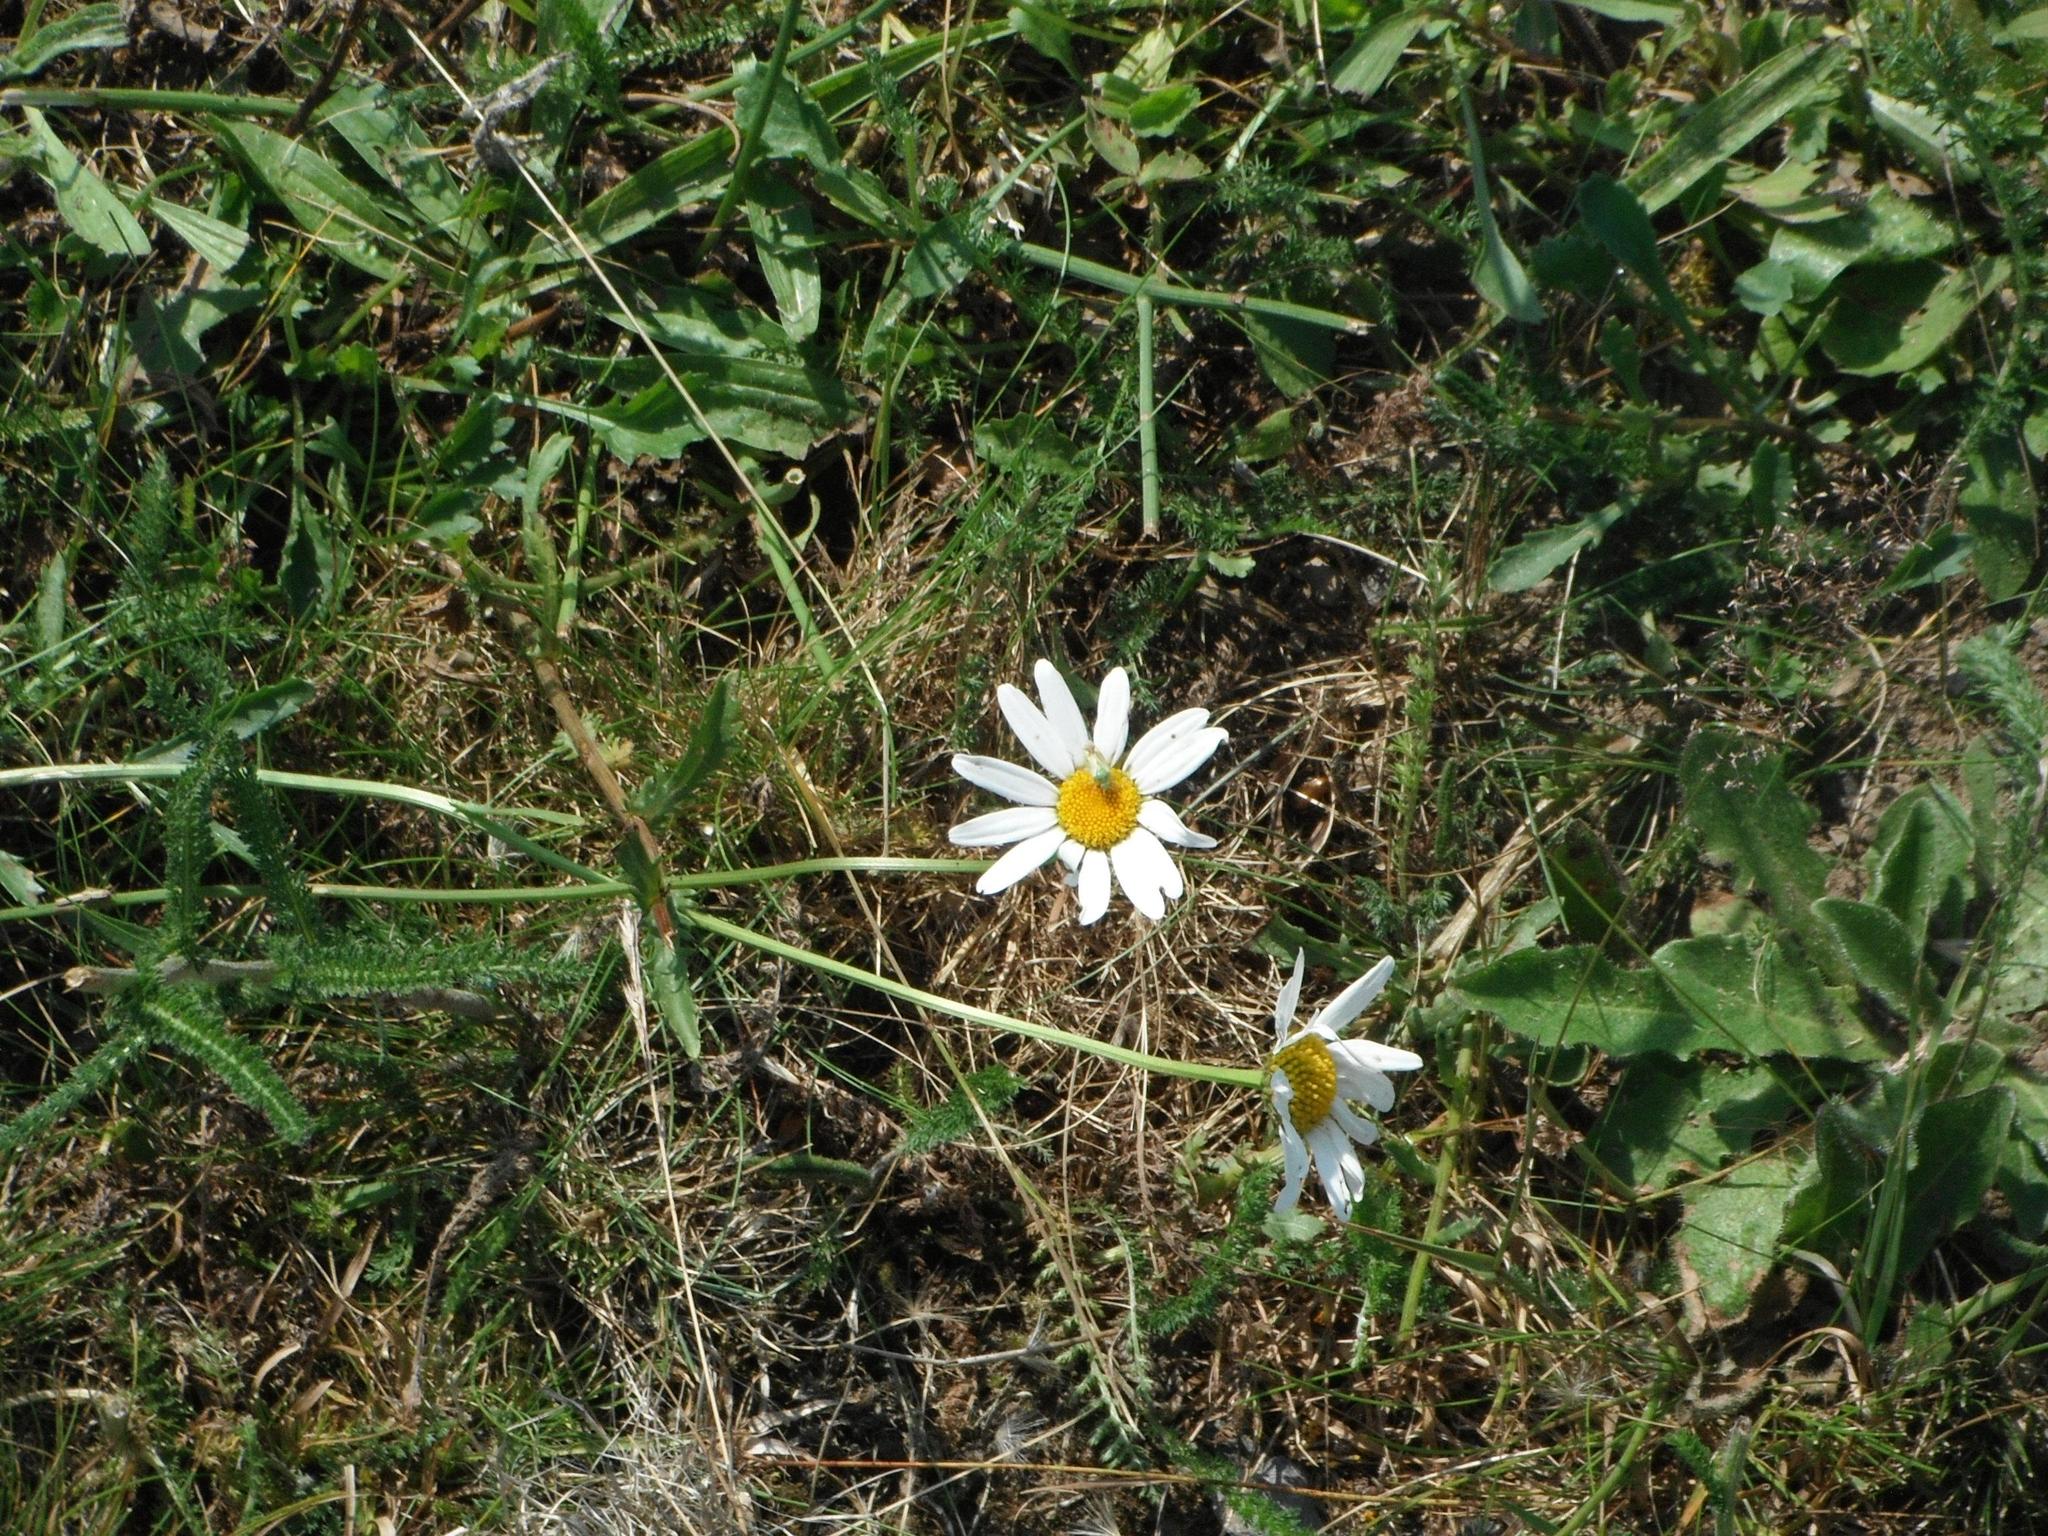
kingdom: Plantae
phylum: Tracheophyta
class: Magnoliopsida
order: Asterales
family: Asteraceae
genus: Leucanthemum
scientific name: Leucanthemum vulgare
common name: Oxeye daisy
